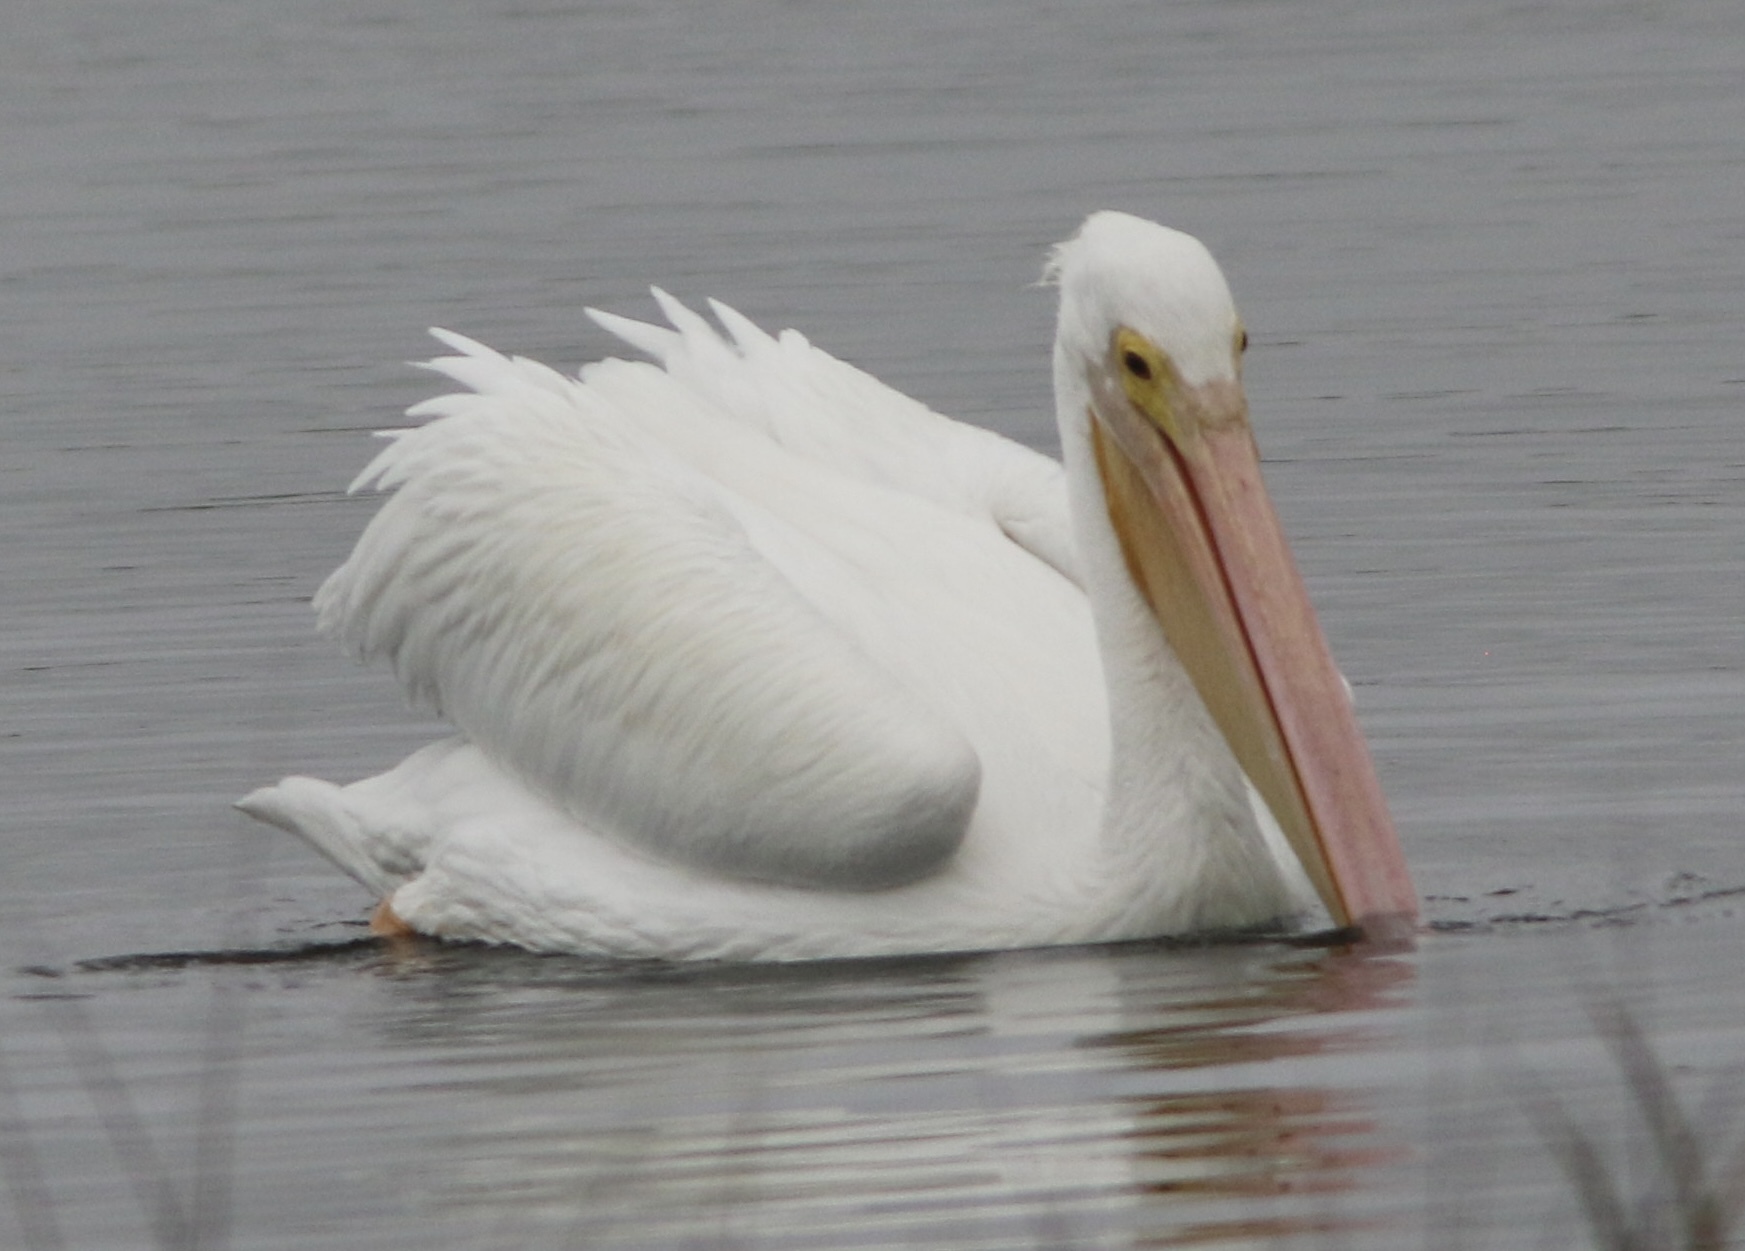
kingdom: Animalia
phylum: Chordata
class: Aves
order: Pelecaniformes
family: Pelecanidae
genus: Pelecanus
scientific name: Pelecanus erythrorhynchos
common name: American white pelican
